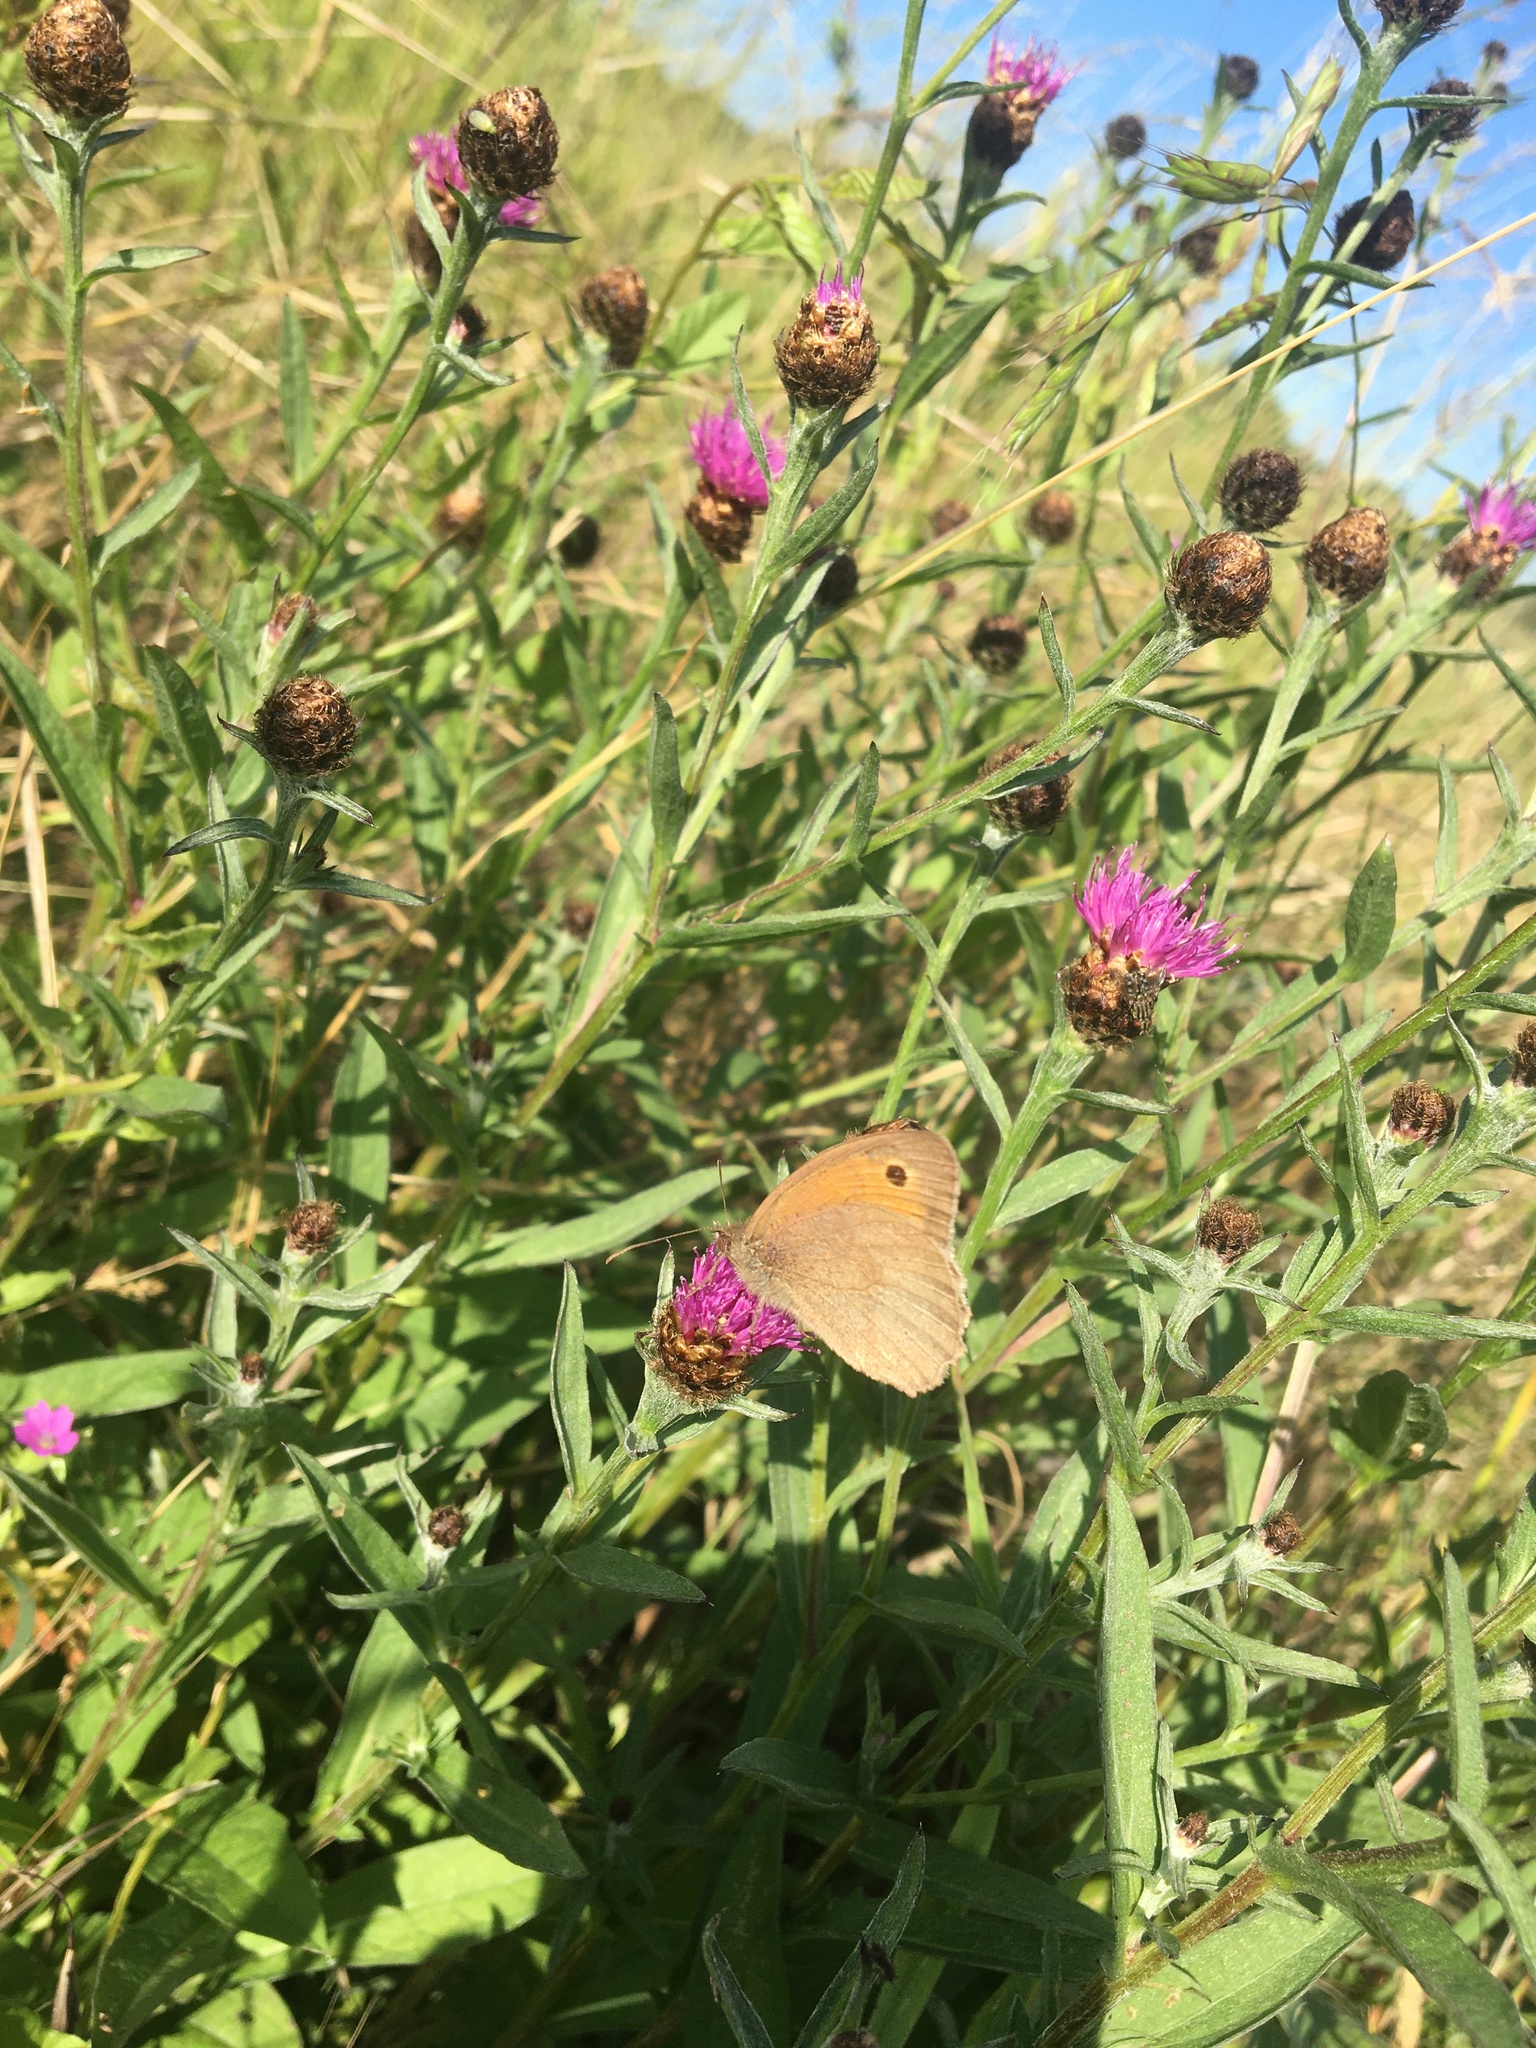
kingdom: Animalia
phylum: Arthropoda
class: Insecta
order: Lepidoptera
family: Nymphalidae
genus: Maniola
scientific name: Maniola jurtina
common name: Meadow brown
